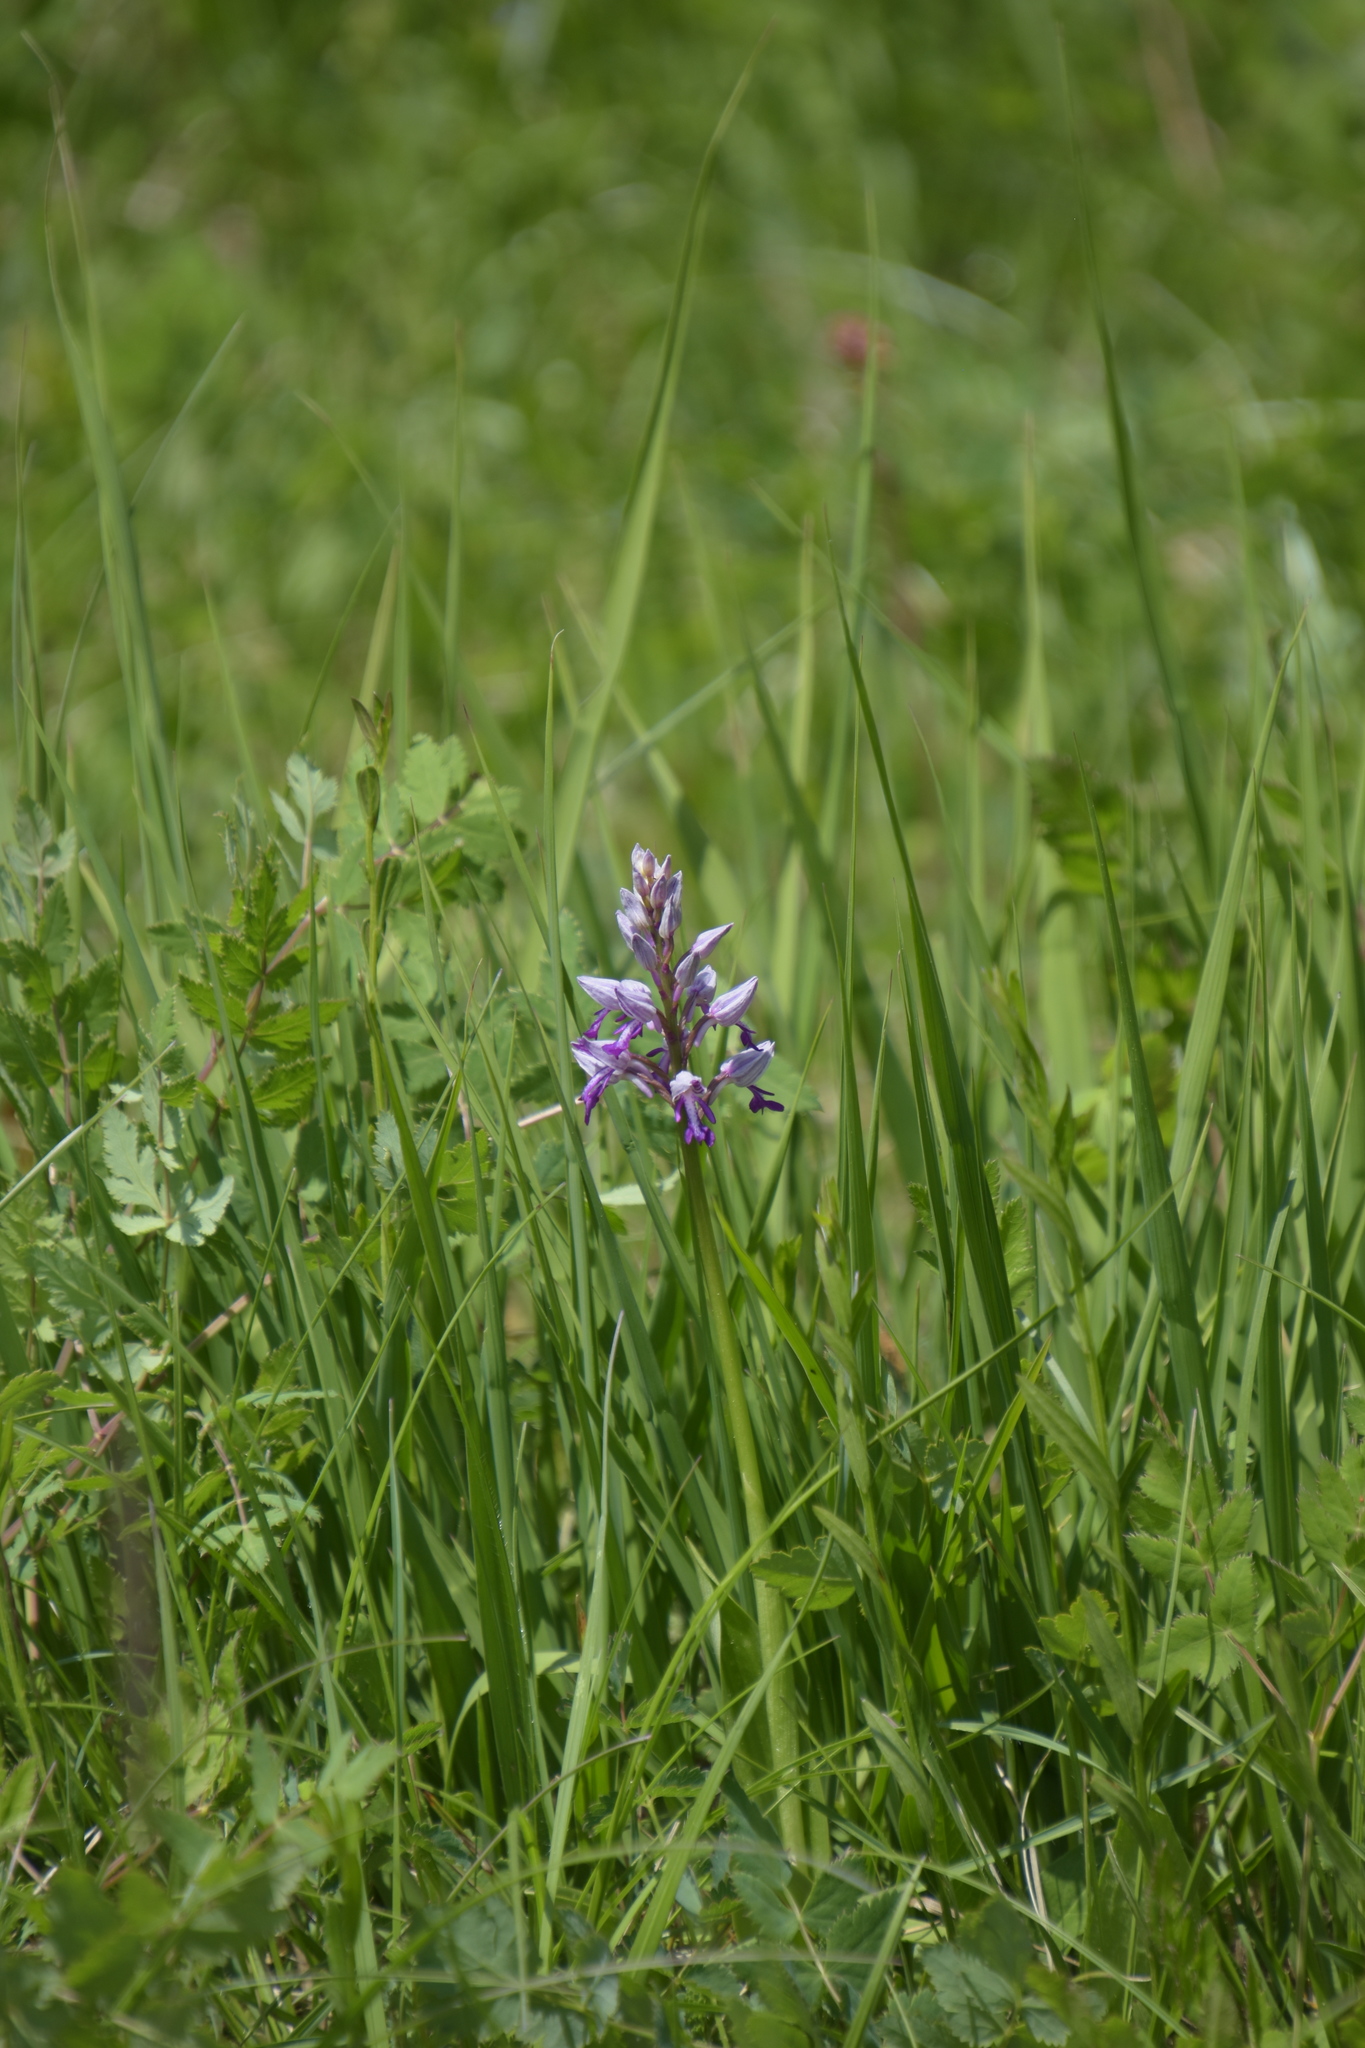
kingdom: Plantae
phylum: Tracheophyta
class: Liliopsida
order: Asparagales
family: Orchidaceae
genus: Orchis
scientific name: Orchis militaris
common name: Military orchid
